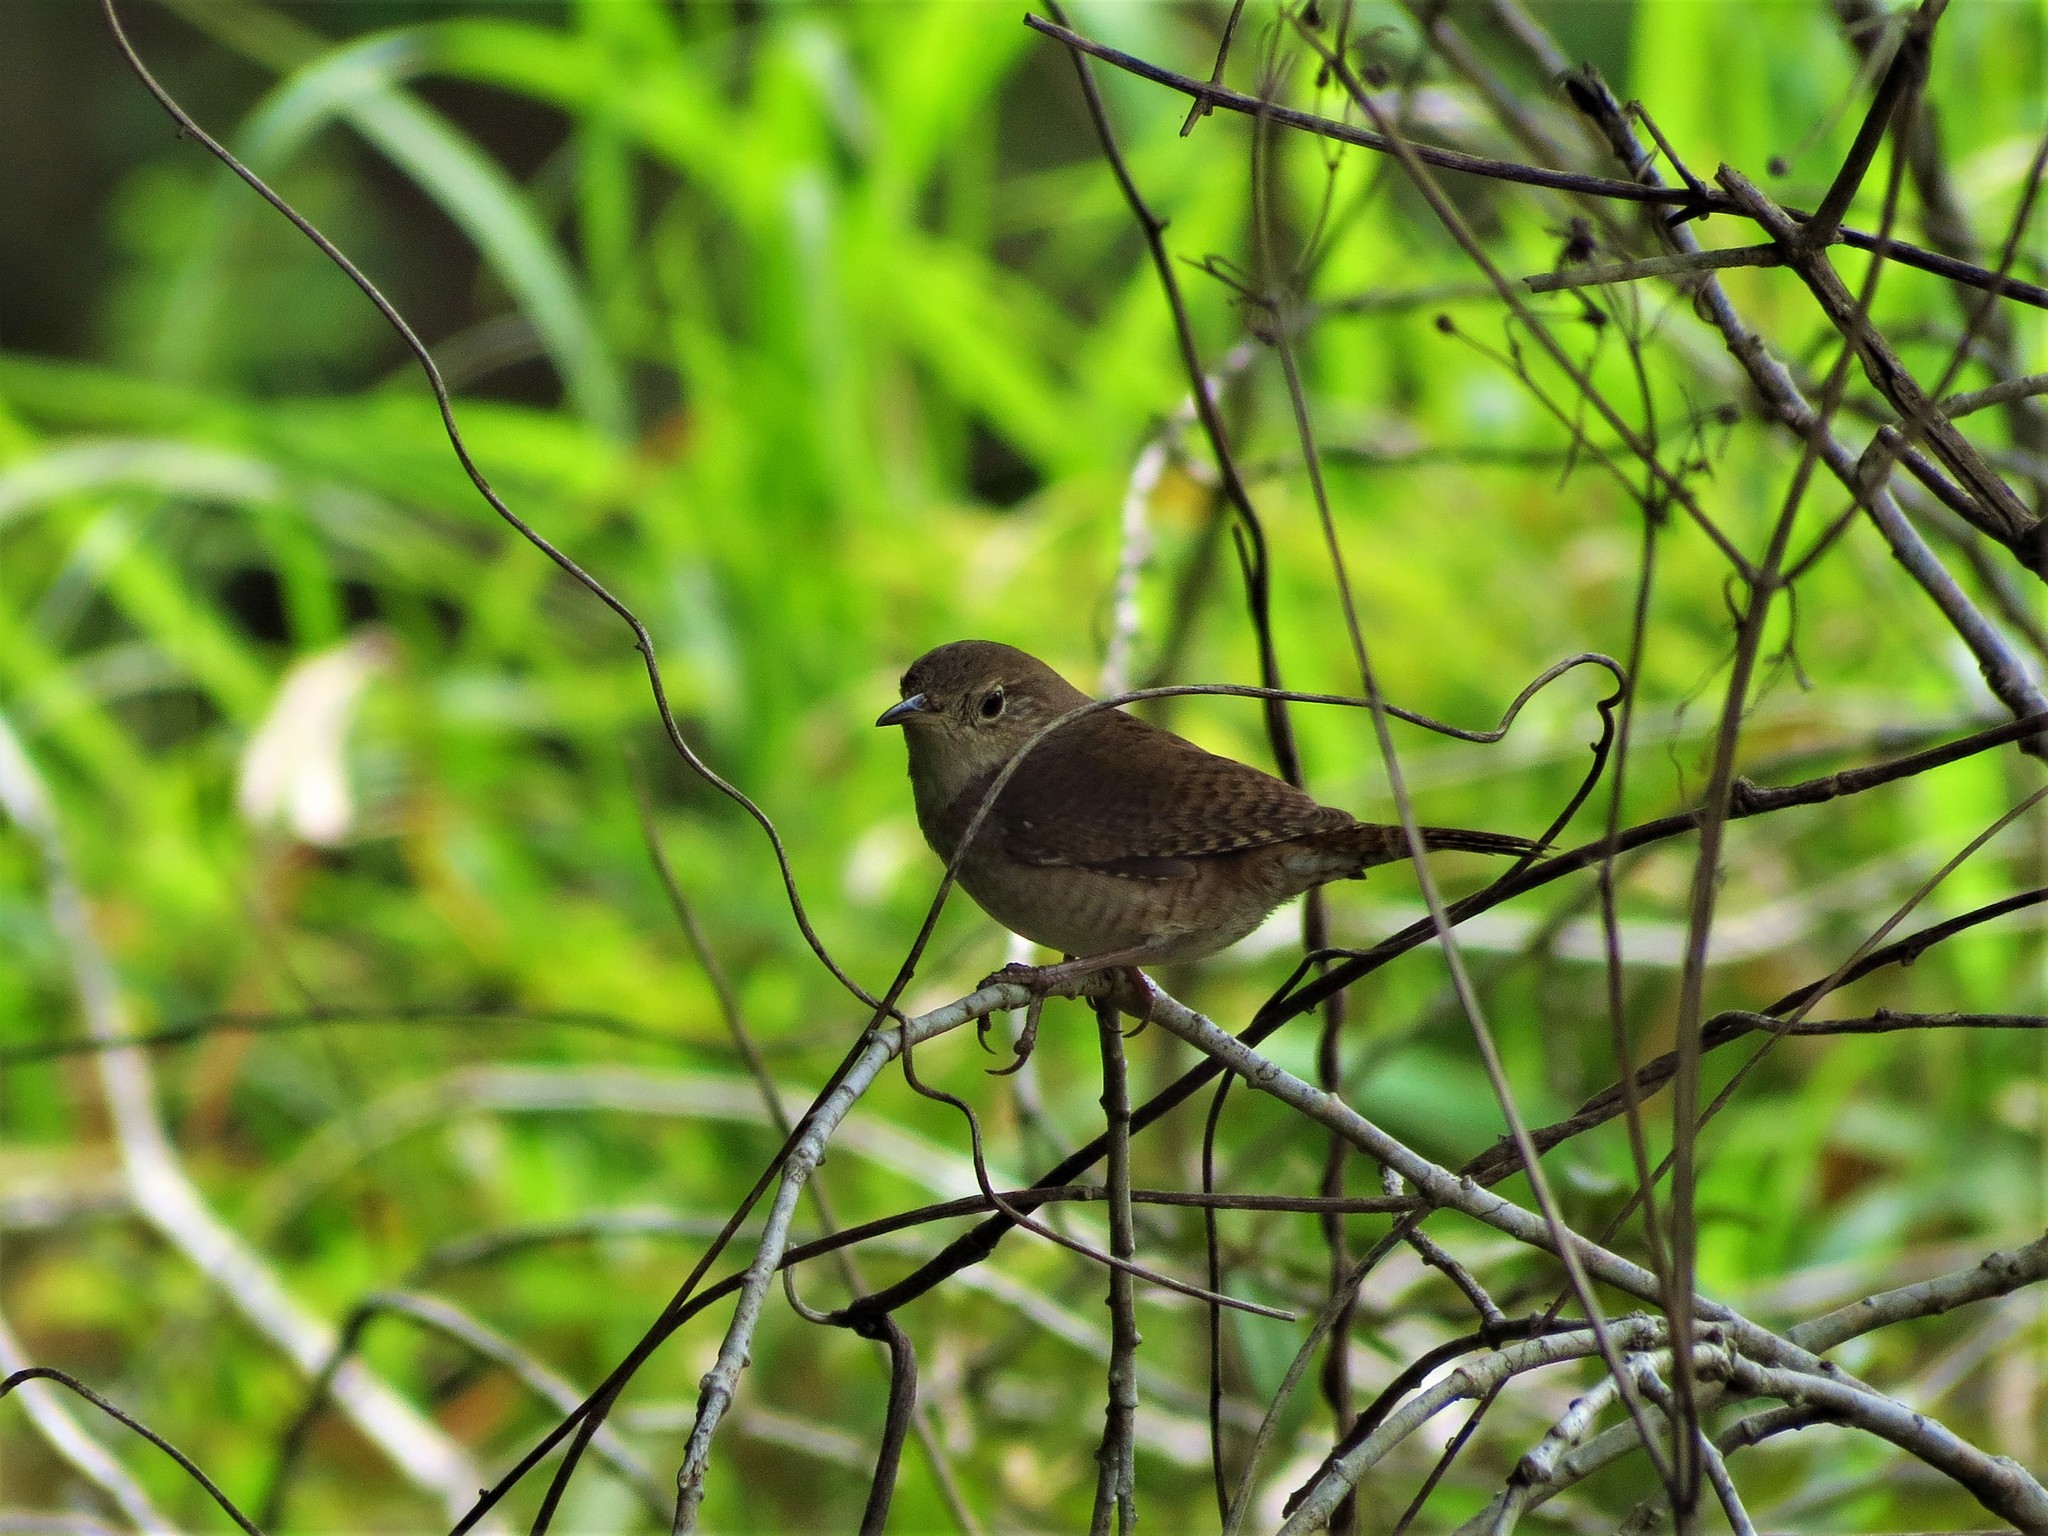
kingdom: Animalia
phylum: Chordata
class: Aves
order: Passeriformes
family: Troglodytidae
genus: Troglodytes
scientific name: Troglodytes aedon
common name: House wren
